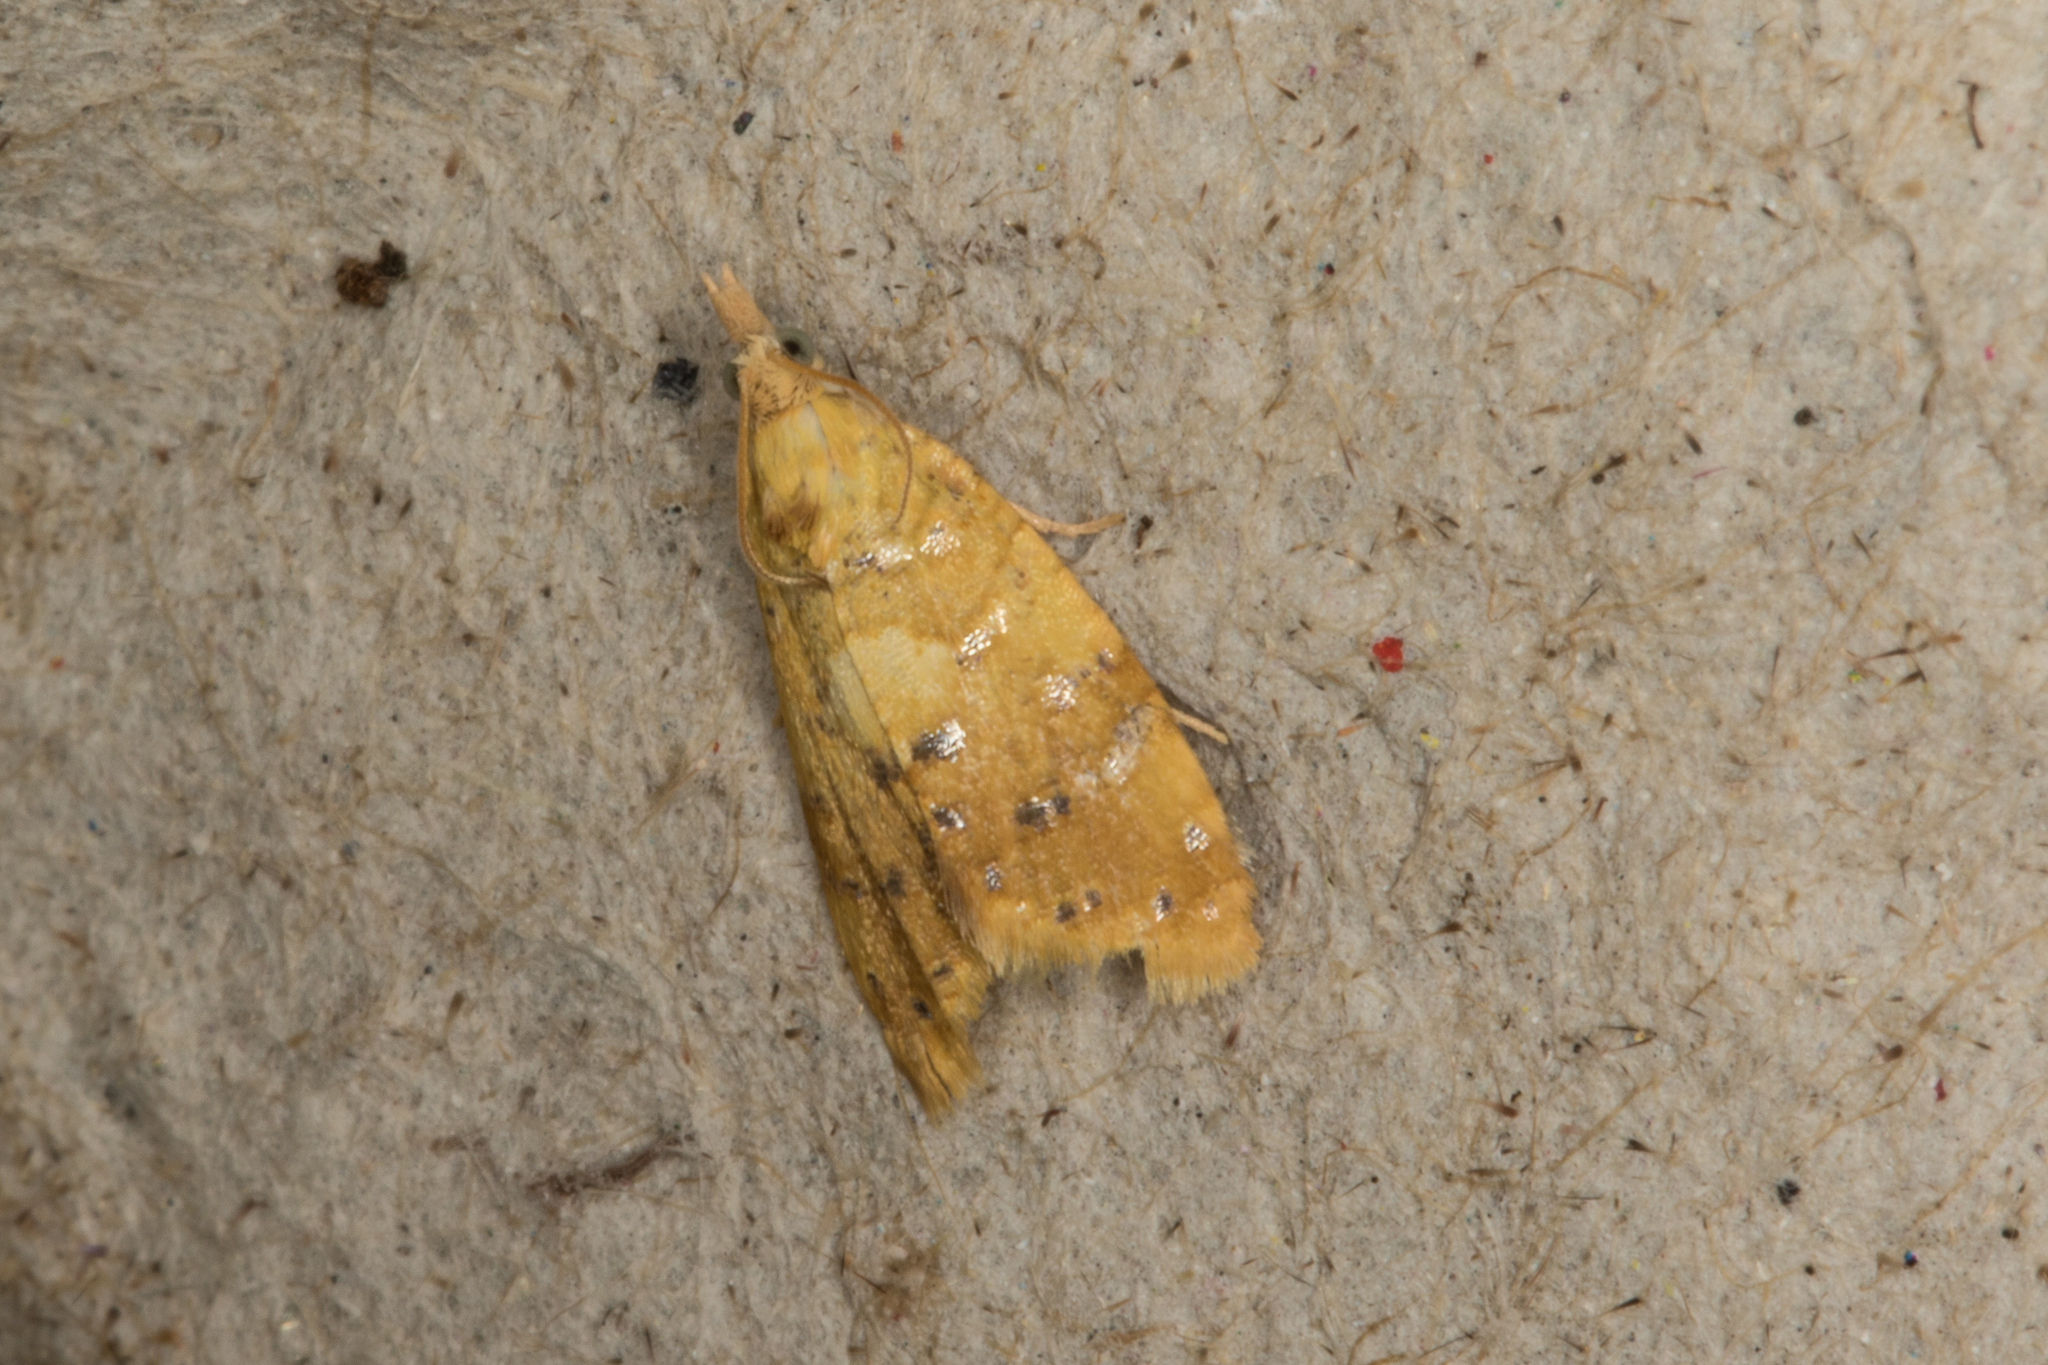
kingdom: Animalia
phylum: Arthropoda
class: Insecta
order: Lepidoptera
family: Tortricidae
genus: Pseudargyrotoza
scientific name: Pseudargyrotoza conwagana
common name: Yellow-spot twist
